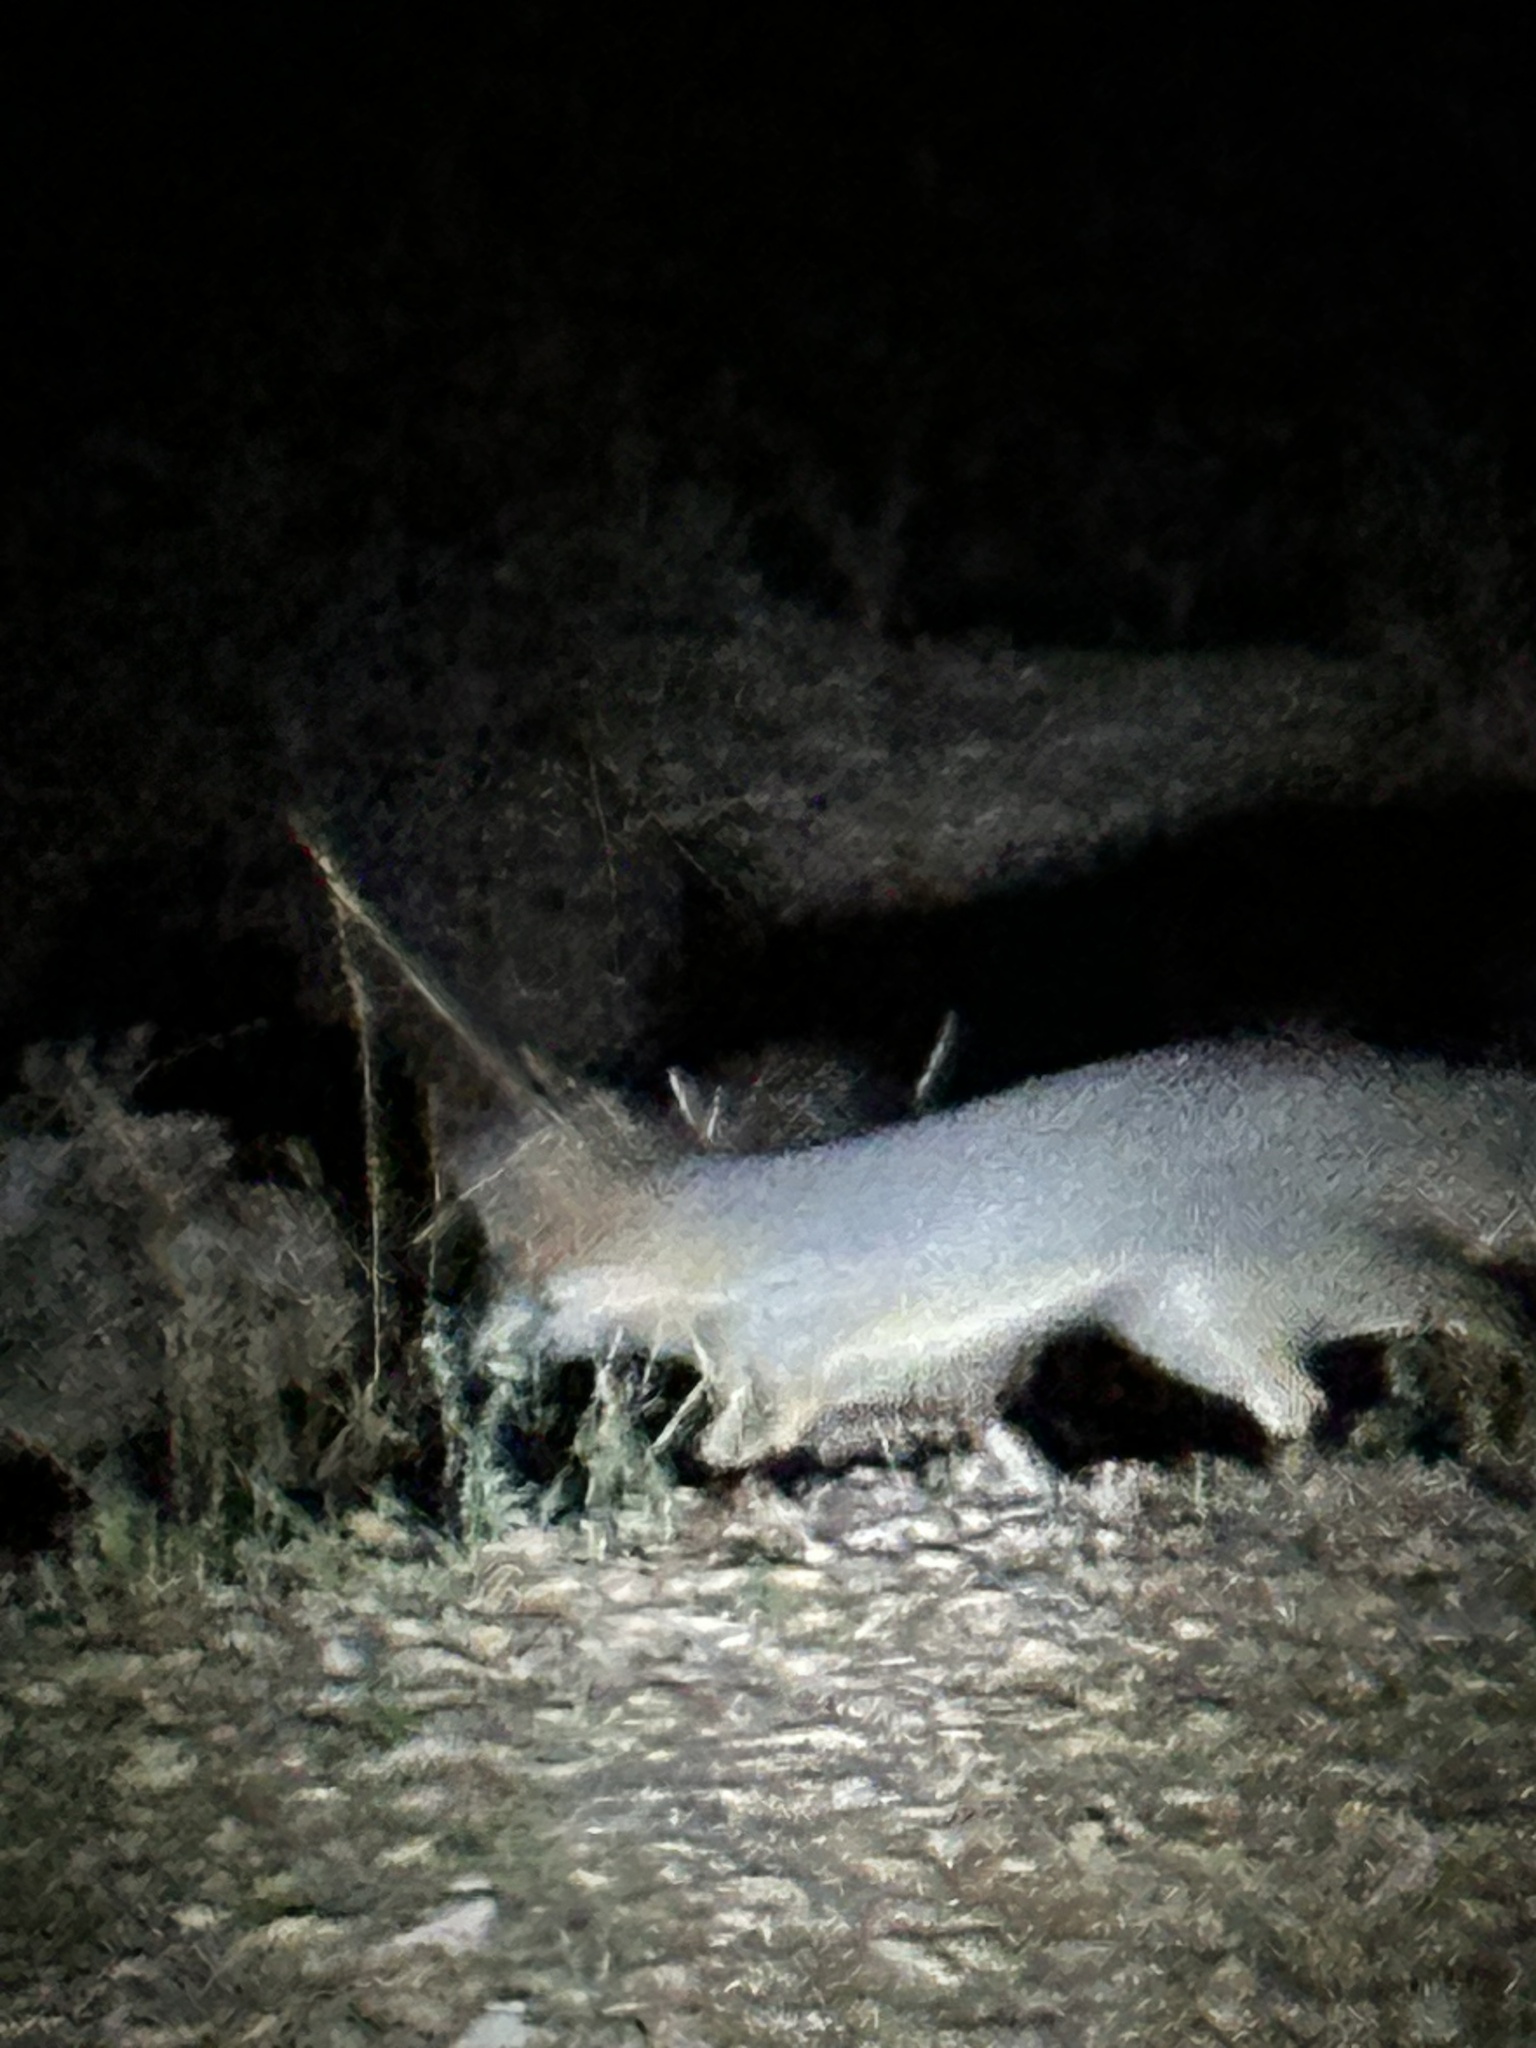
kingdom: Animalia
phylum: Chordata
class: Mammalia
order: Carnivora
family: Canidae
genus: Urocyon
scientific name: Urocyon cinereoargenteus
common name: Gray fox
